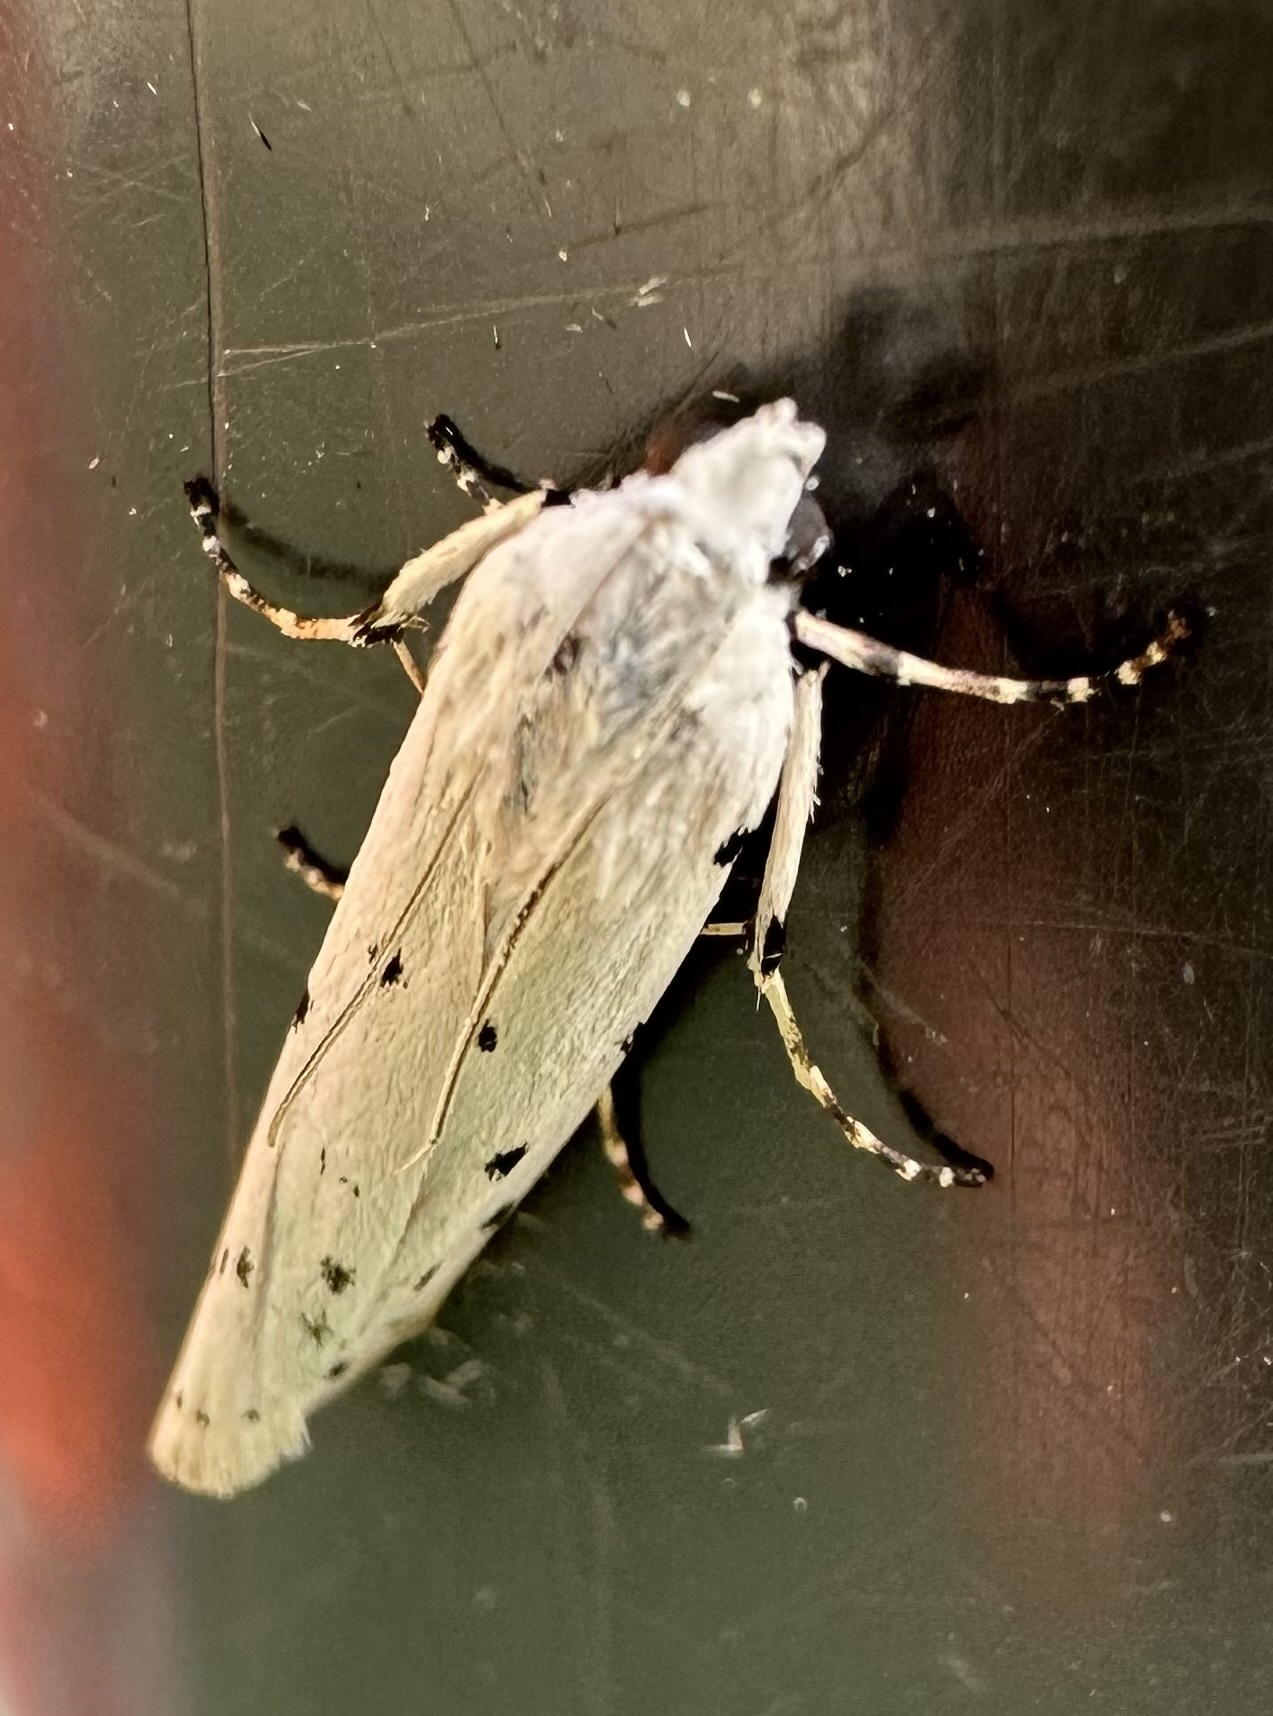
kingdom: Animalia
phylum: Arthropoda
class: Insecta
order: Lepidoptera
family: Pyralidae
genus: Myelois
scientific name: Myelois circumvoluta
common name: Thistle ermine
